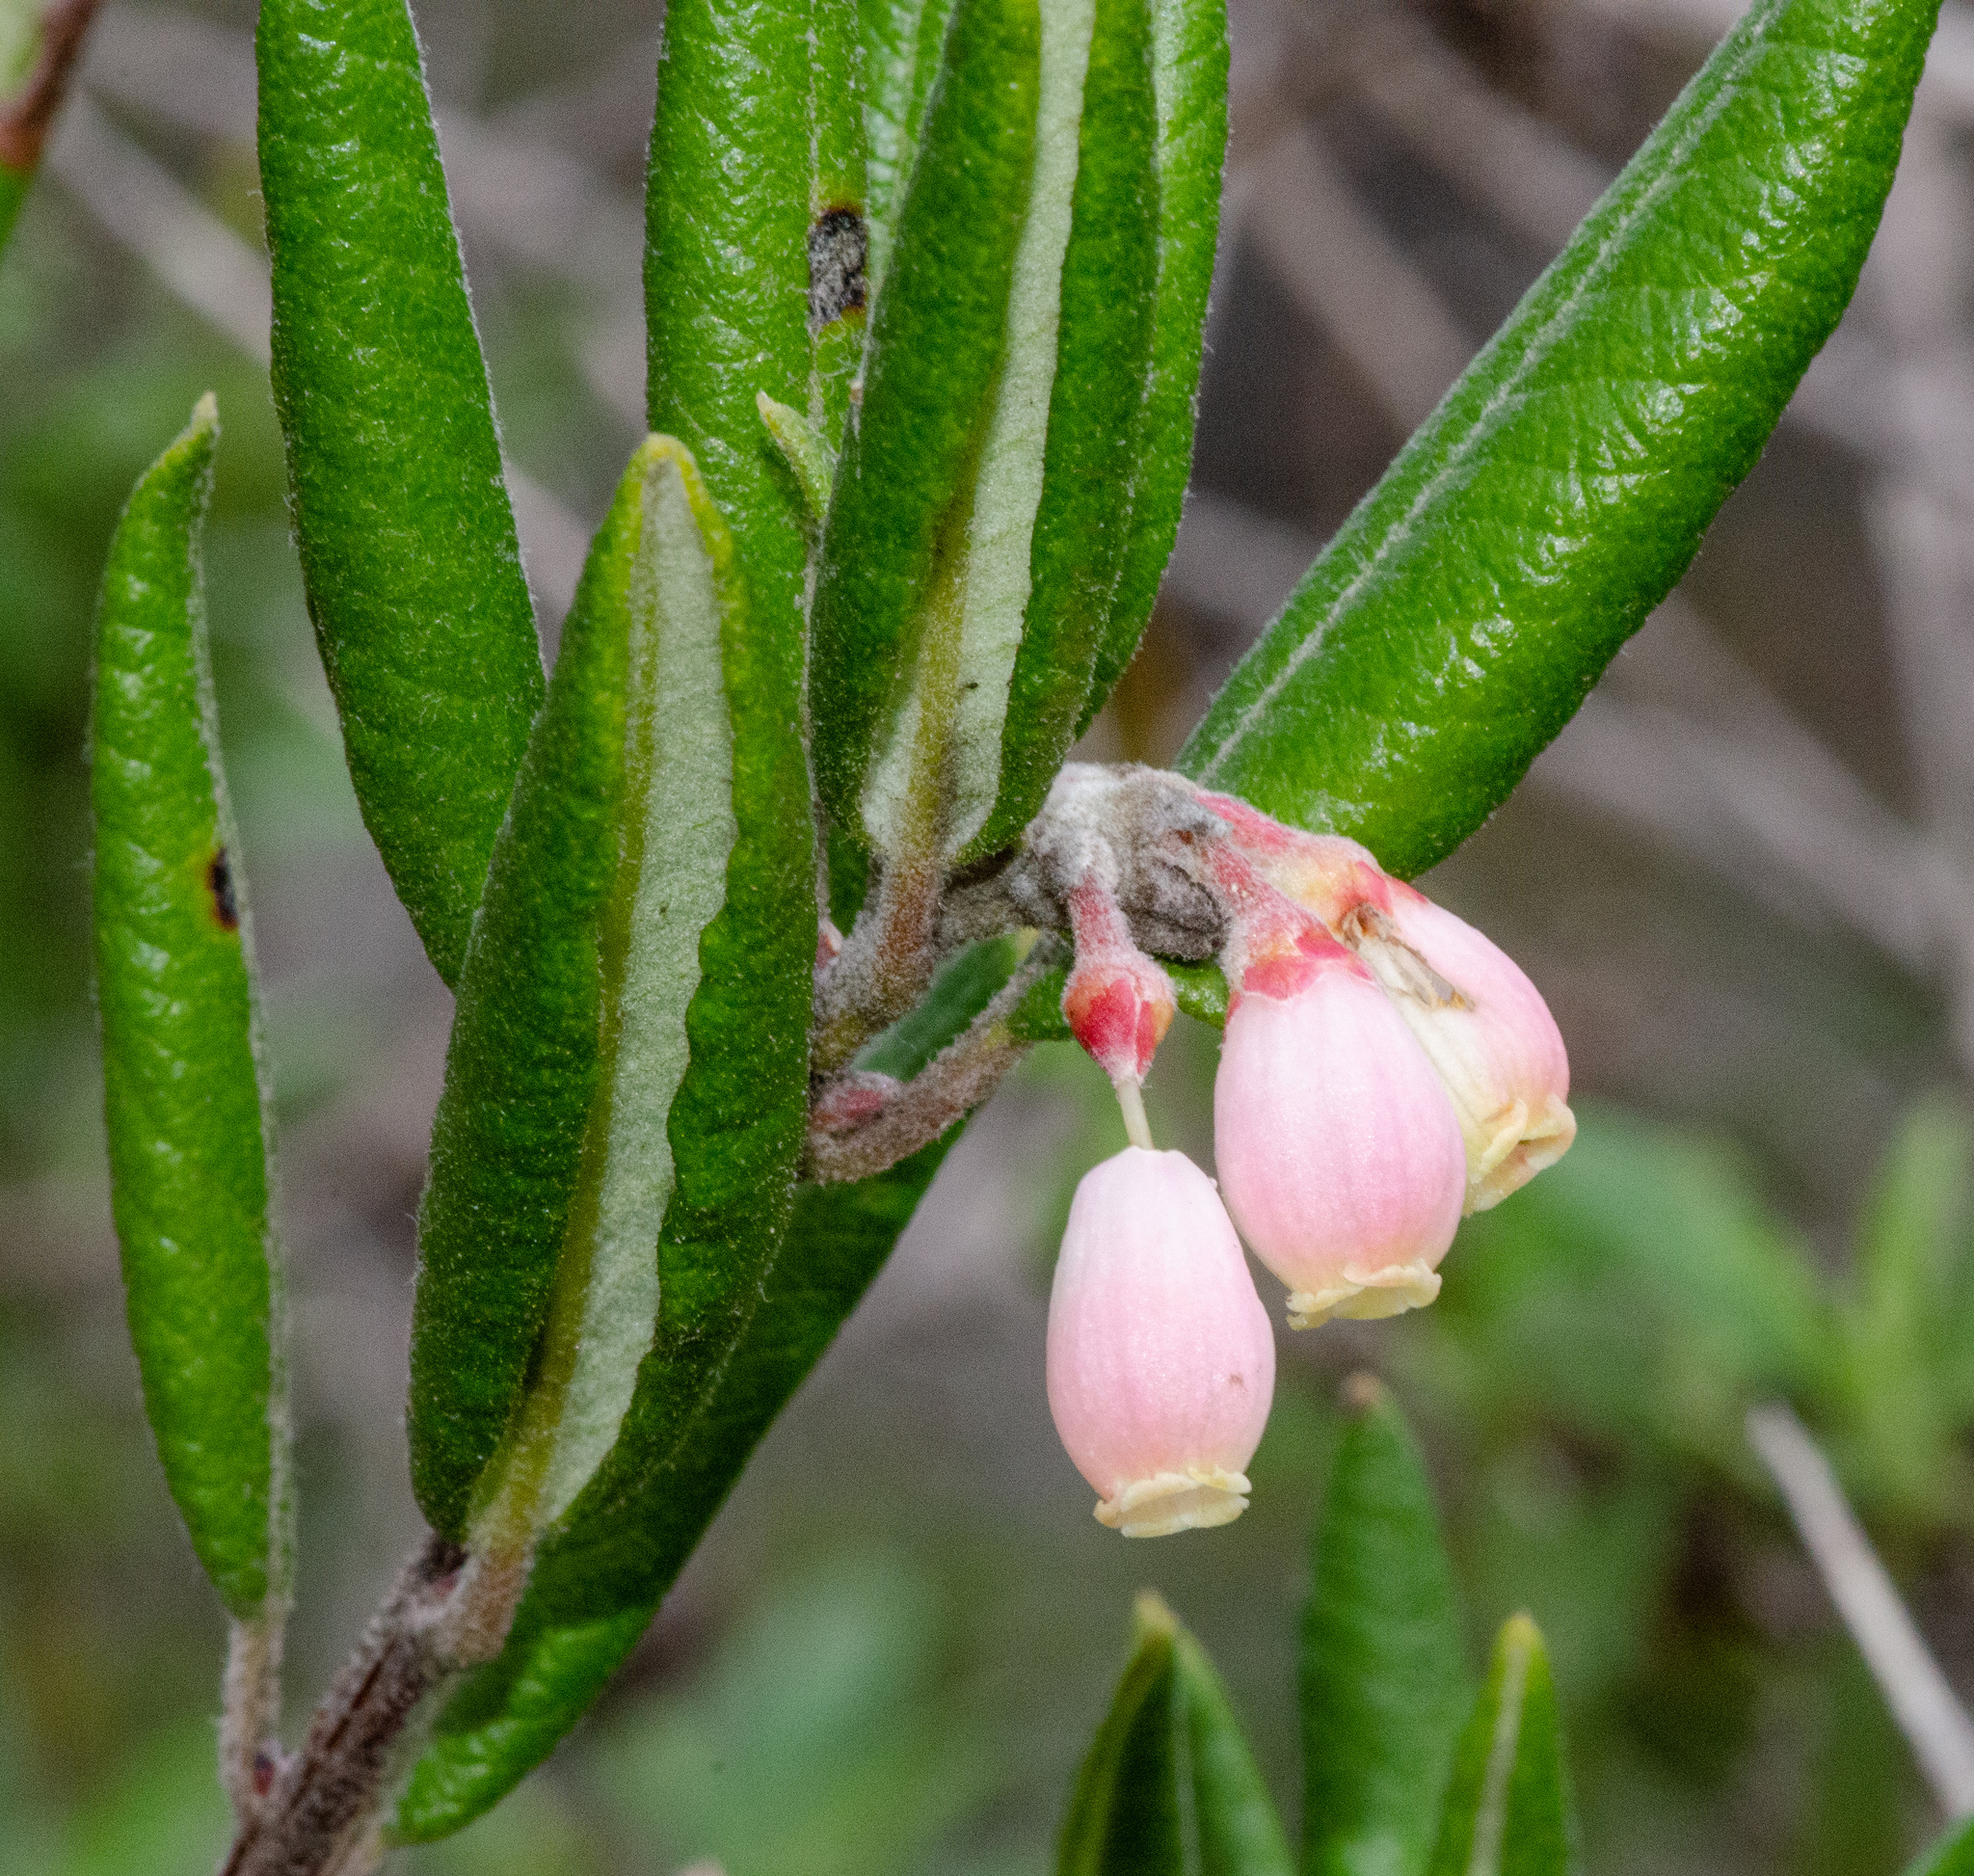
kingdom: Plantae
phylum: Tracheophyta
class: Magnoliopsida
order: Ericales
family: Ericaceae
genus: Arctostaphylos
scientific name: Arctostaphylos bicolor
